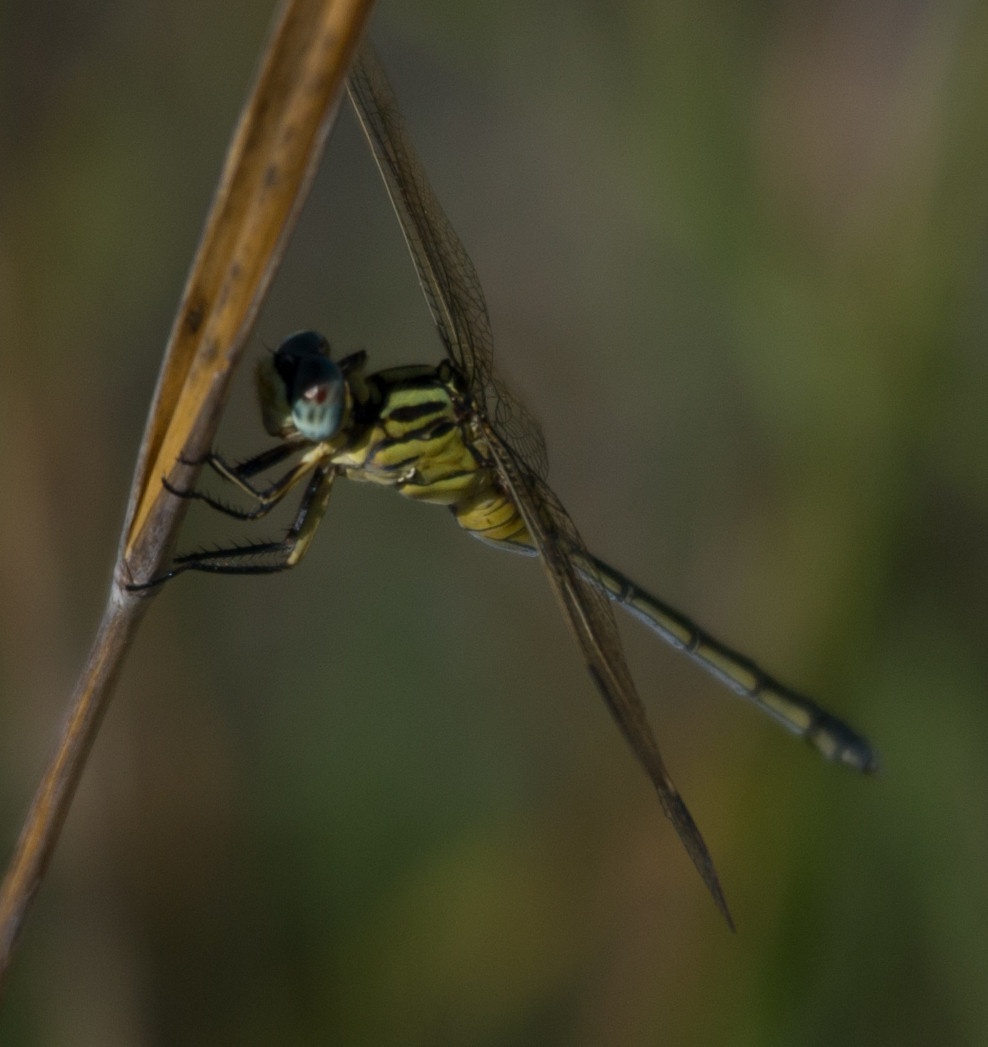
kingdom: Animalia
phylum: Arthropoda
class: Insecta
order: Odonata
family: Libellulidae
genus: Orthetrum
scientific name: Orthetrum icteromelas
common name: Spectacled skimmer
